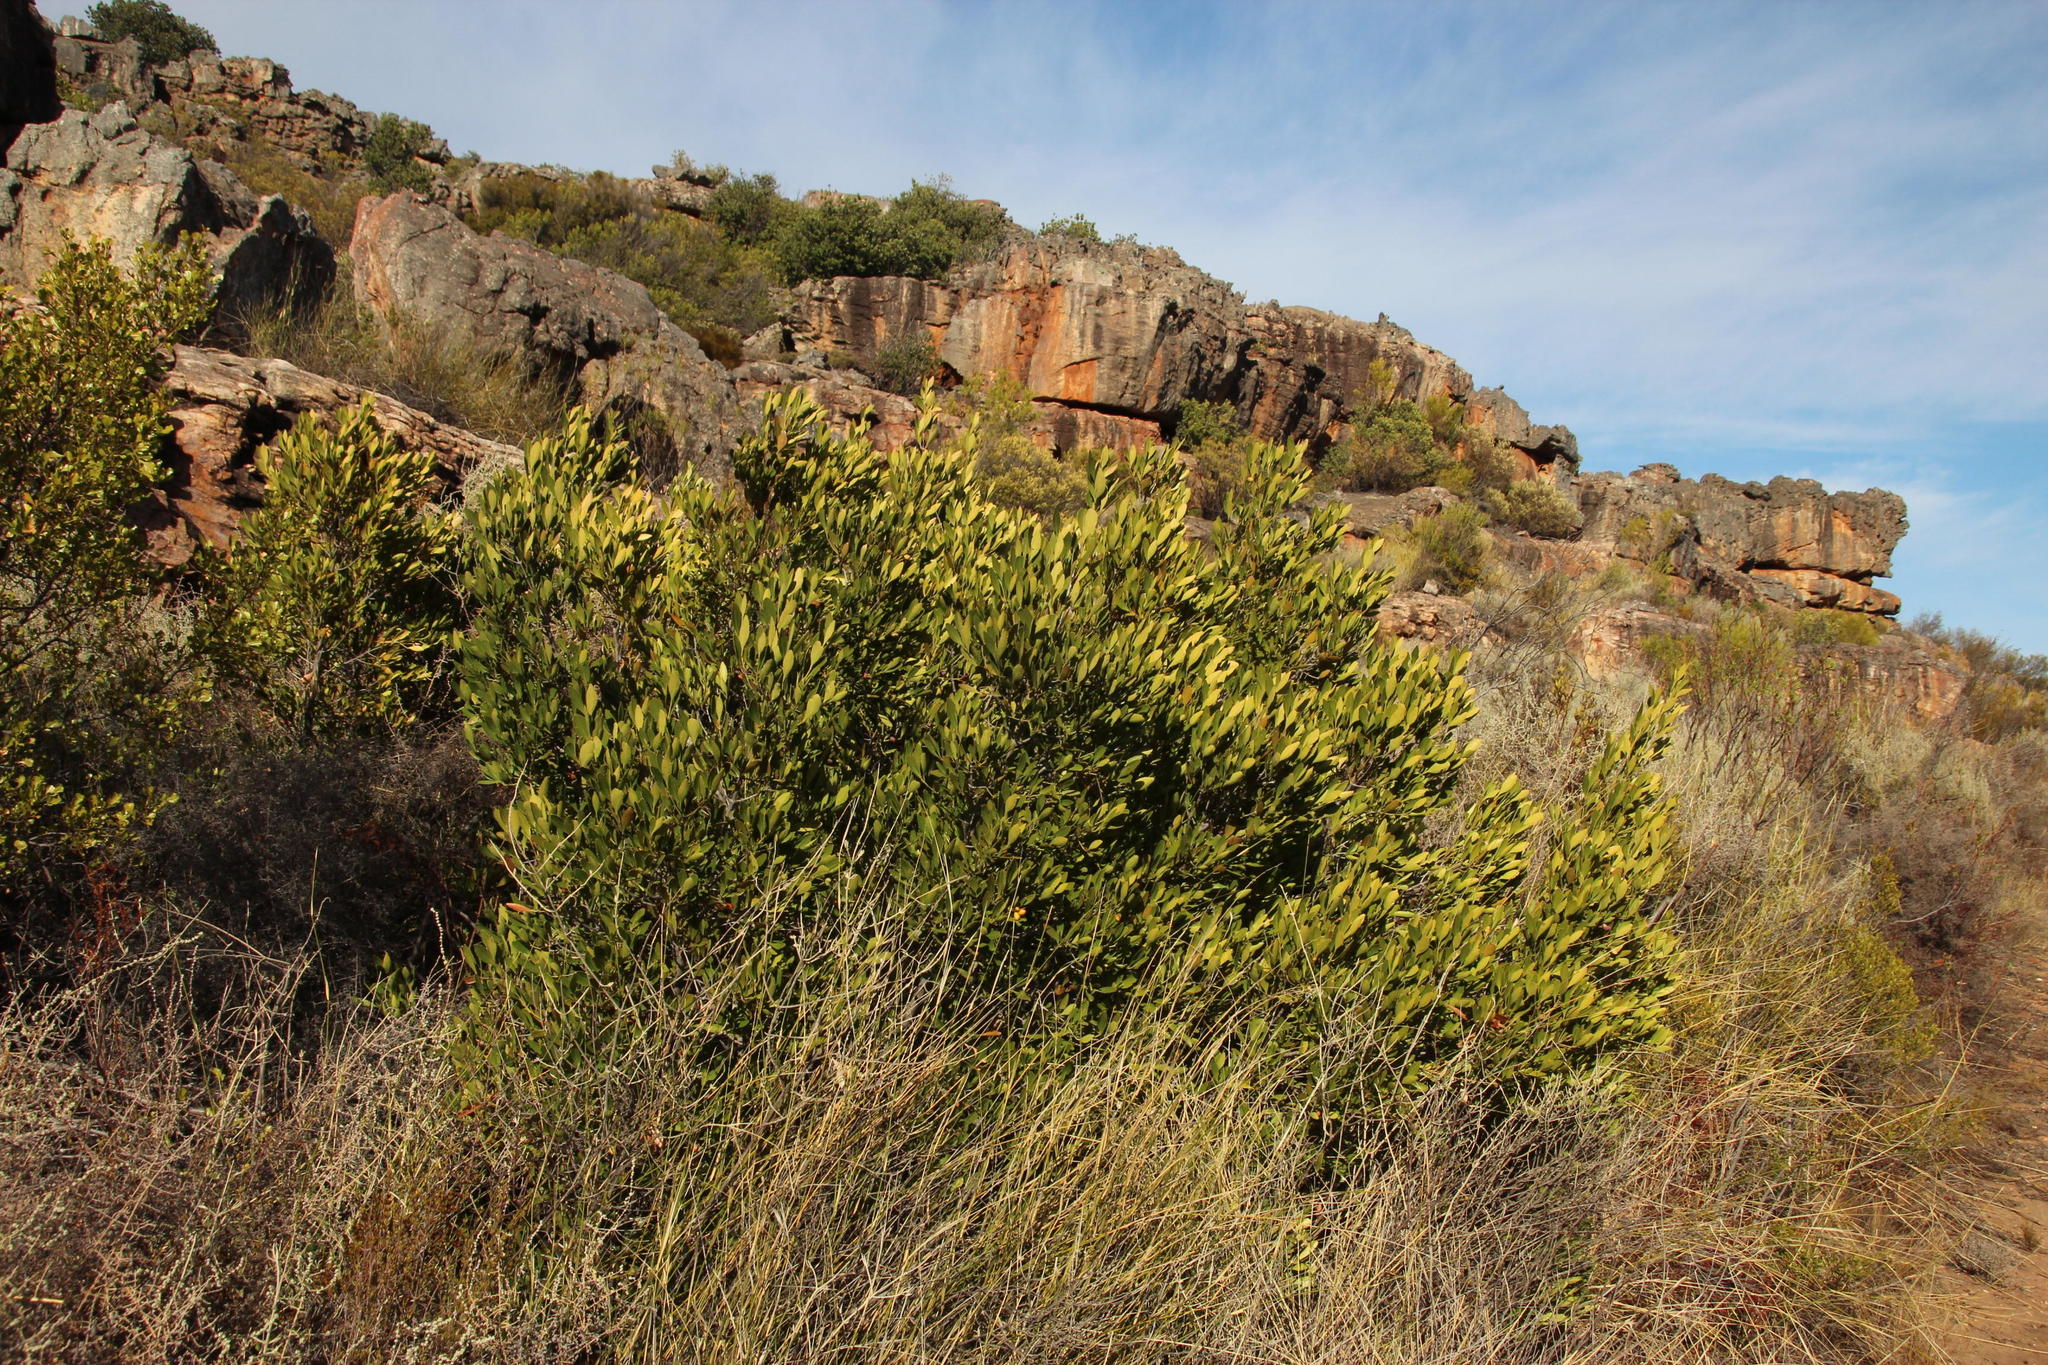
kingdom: Plantae
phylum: Tracheophyta
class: Magnoliopsida
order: Celastrales
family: Celastraceae
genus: Elaeodendron
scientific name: Elaeodendron schinoides
